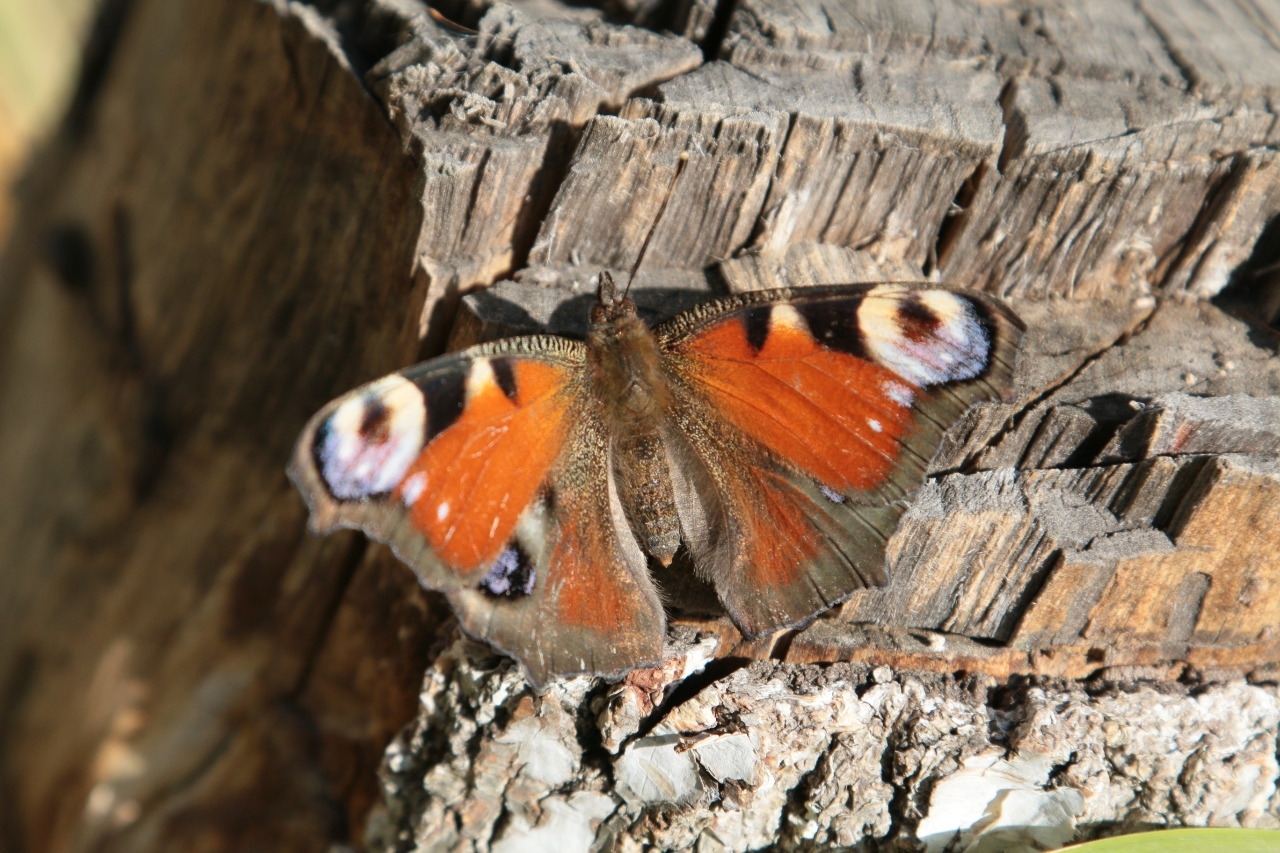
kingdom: Animalia
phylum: Arthropoda
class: Insecta
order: Lepidoptera
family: Nymphalidae
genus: Aglais
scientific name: Aglais io
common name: Peacock
